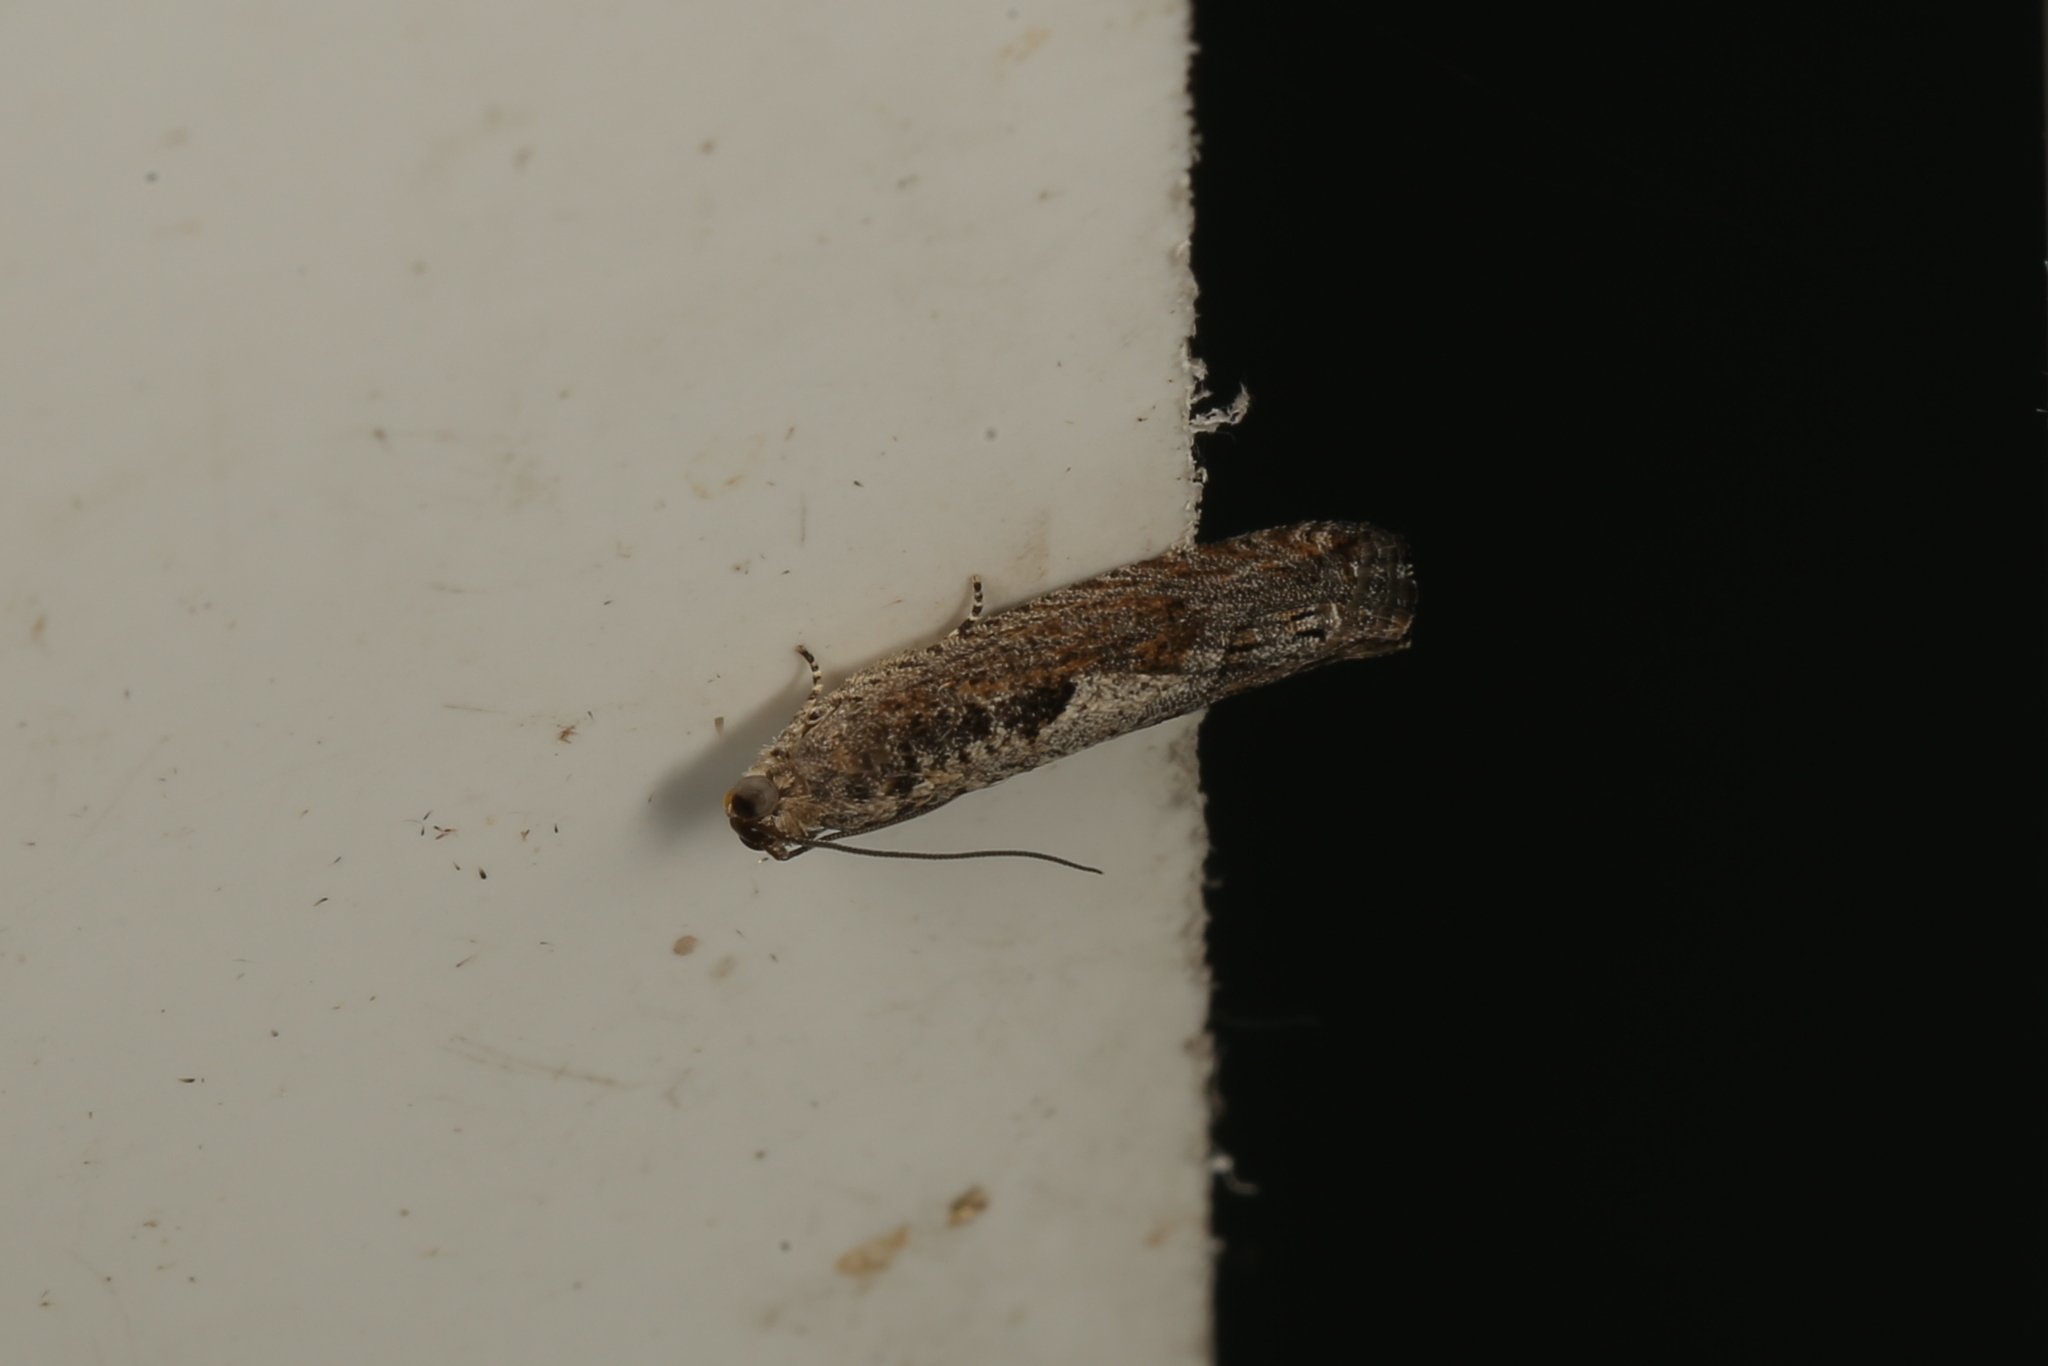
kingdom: Animalia
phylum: Arthropoda
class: Insecta
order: Lepidoptera
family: Tortricidae
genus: Strepsicrates
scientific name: Strepsicrates macropetana
